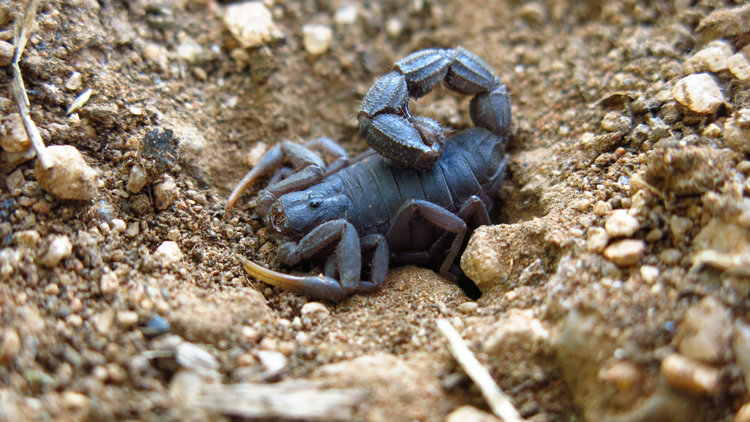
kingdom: Animalia
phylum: Arthropoda
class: Arachnida
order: Scorpiones
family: Buthidae
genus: Parabuthus
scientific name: Parabuthus transvaalicus
